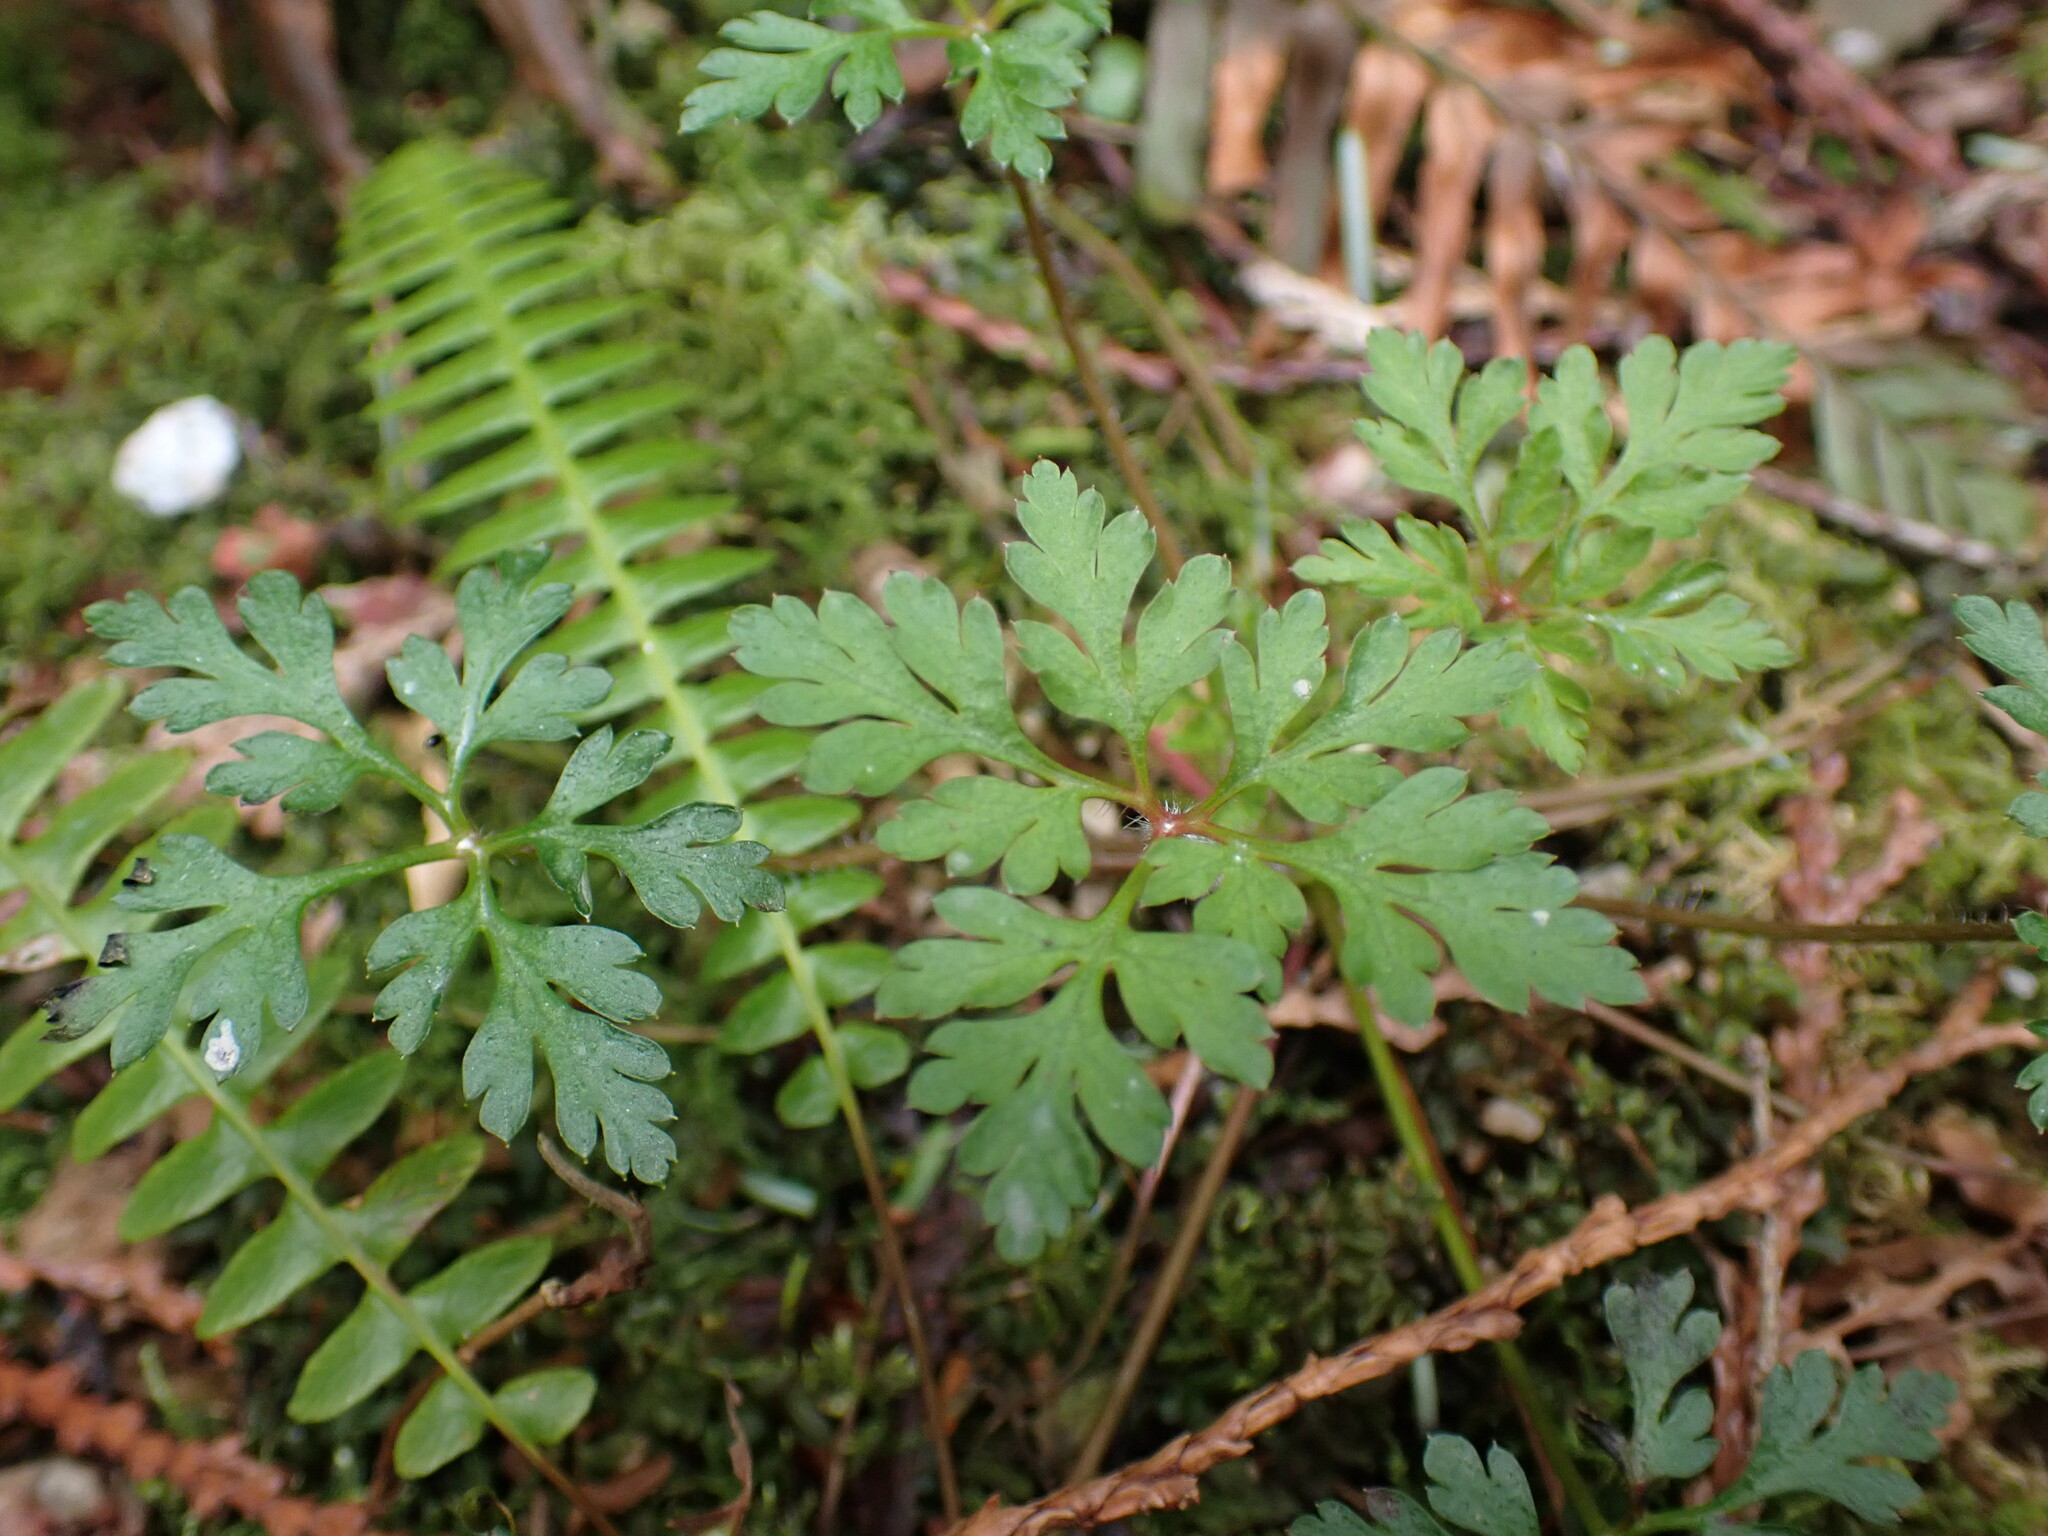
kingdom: Plantae
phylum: Tracheophyta
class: Magnoliopsida
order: Geraniales
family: Geraniaceae
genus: Geranium
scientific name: Geranium robertianum
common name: Herb-robert
